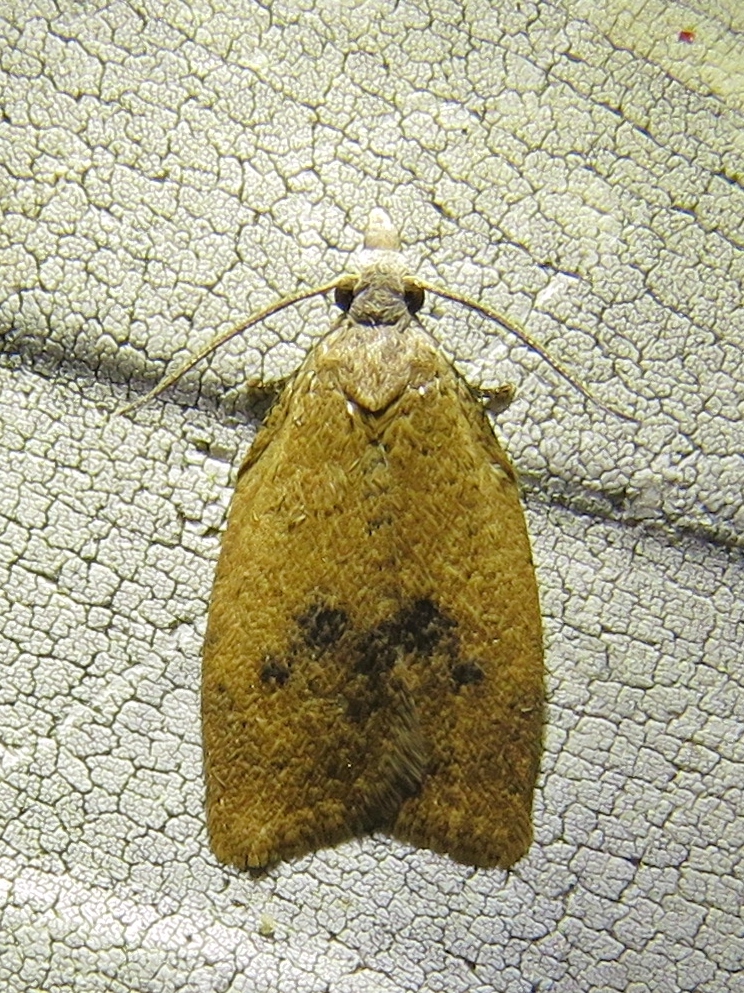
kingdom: Animalia
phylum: Arthropoda
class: Insecta
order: Lepidoptera
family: Tortricidae
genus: Sparganothoides
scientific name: Sparganothoides lentiginosana
